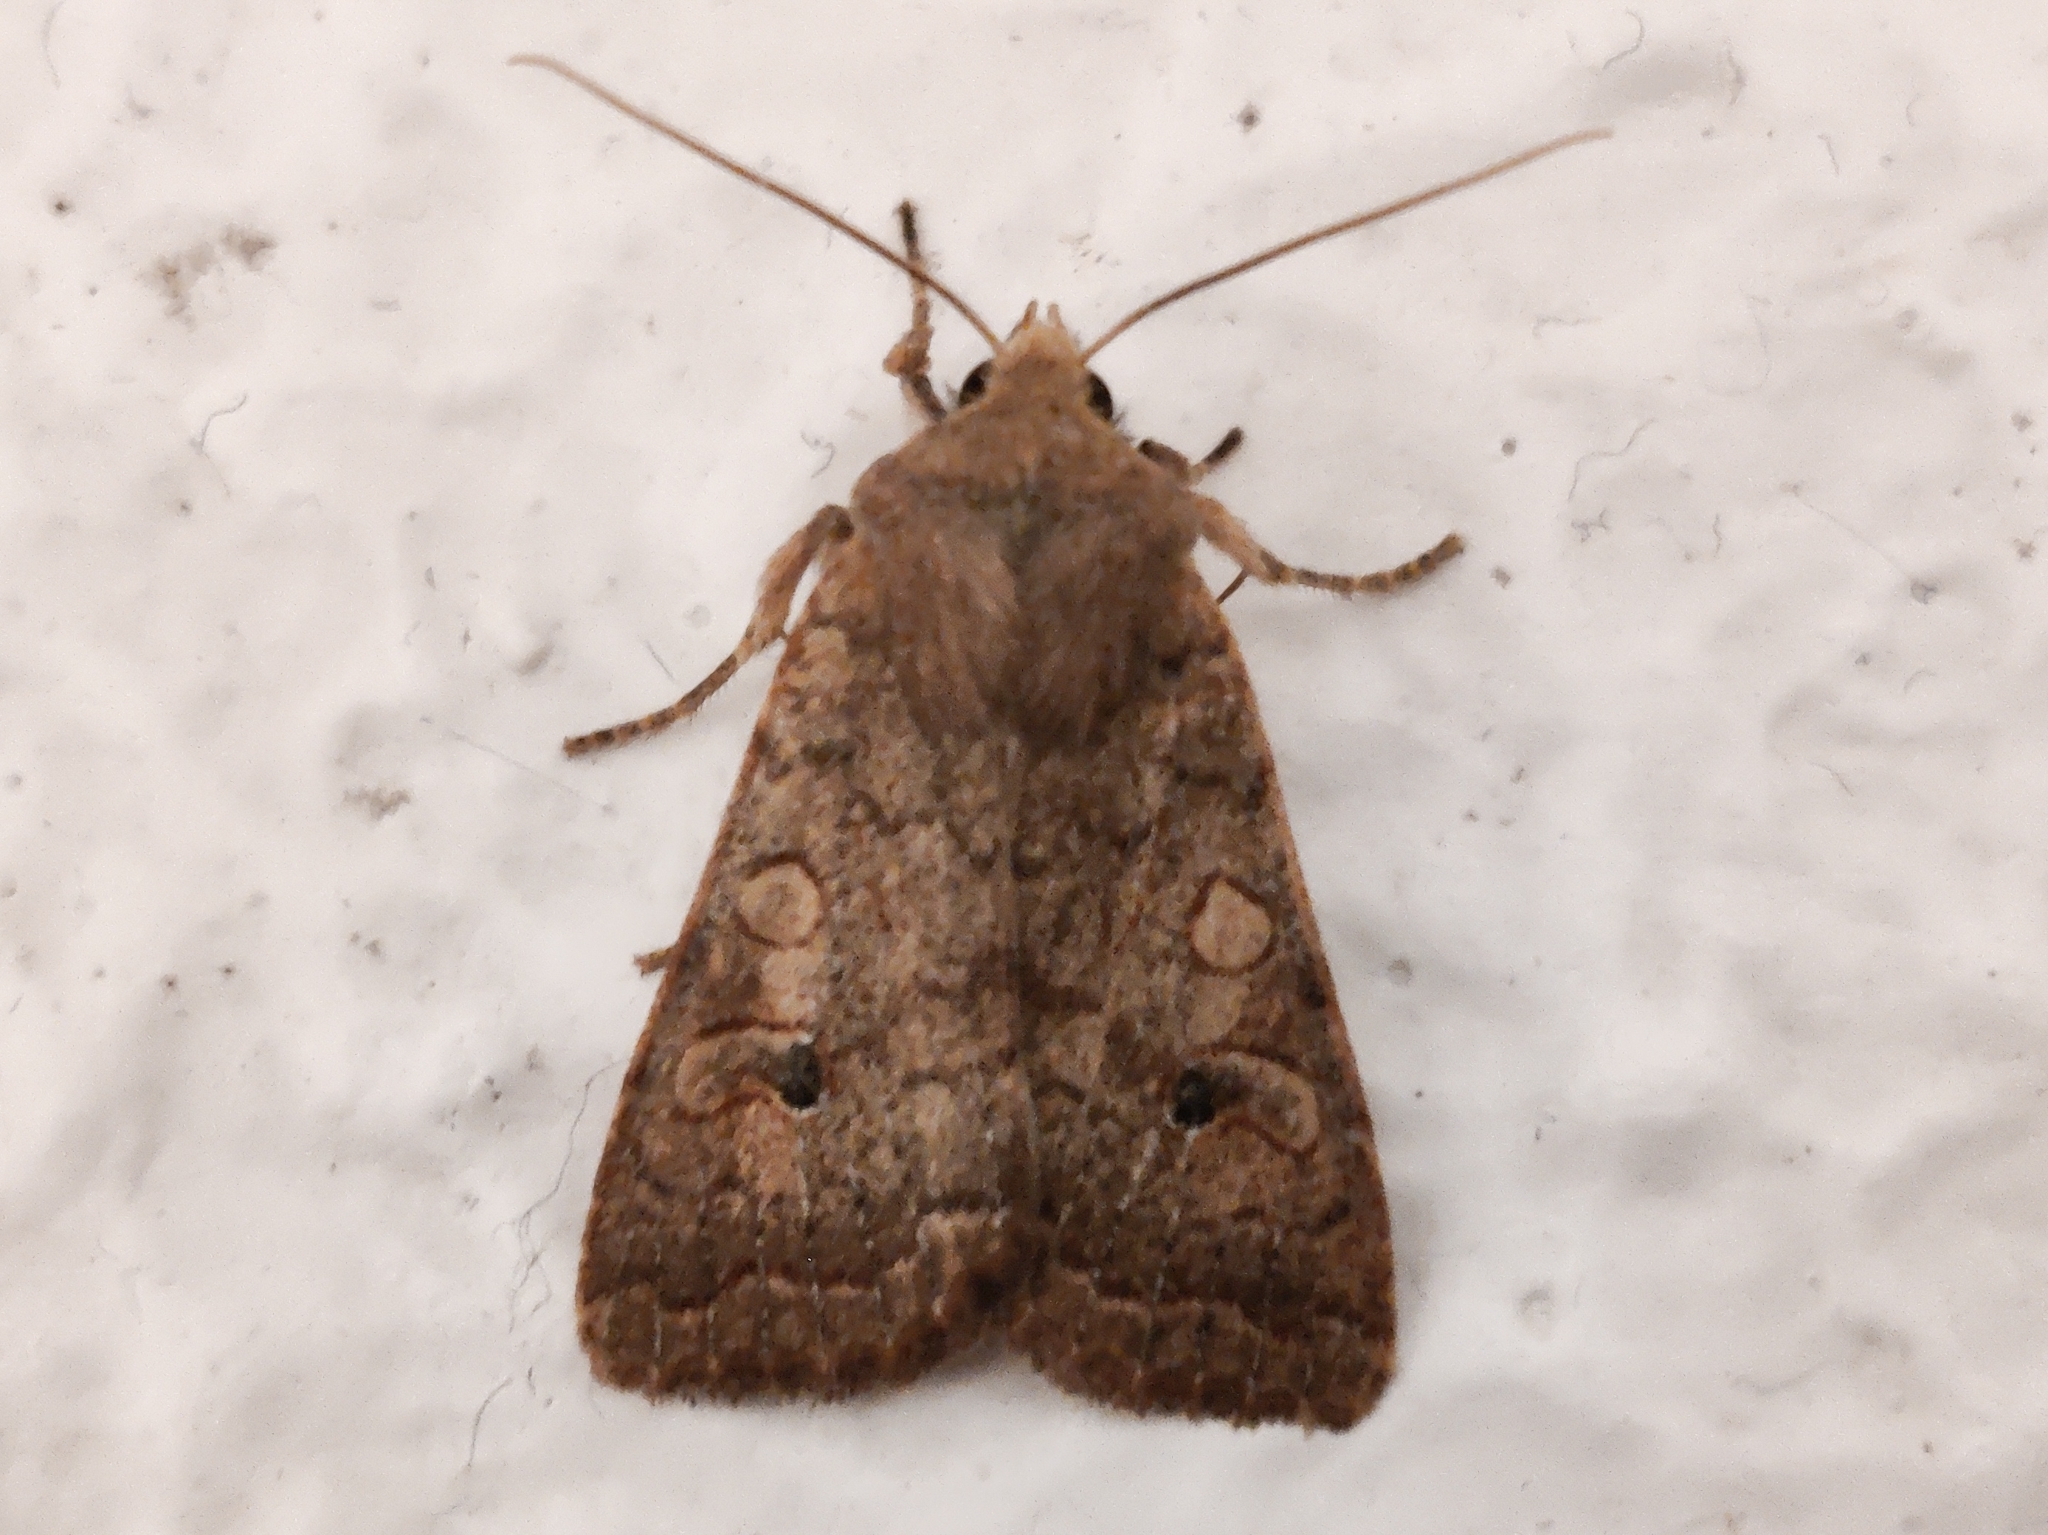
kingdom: Animalia
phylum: Arthropoda
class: Insecta
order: Lepidoptera
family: Noctuidae
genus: Sunira
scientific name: Sunira circellaris
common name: Brick
